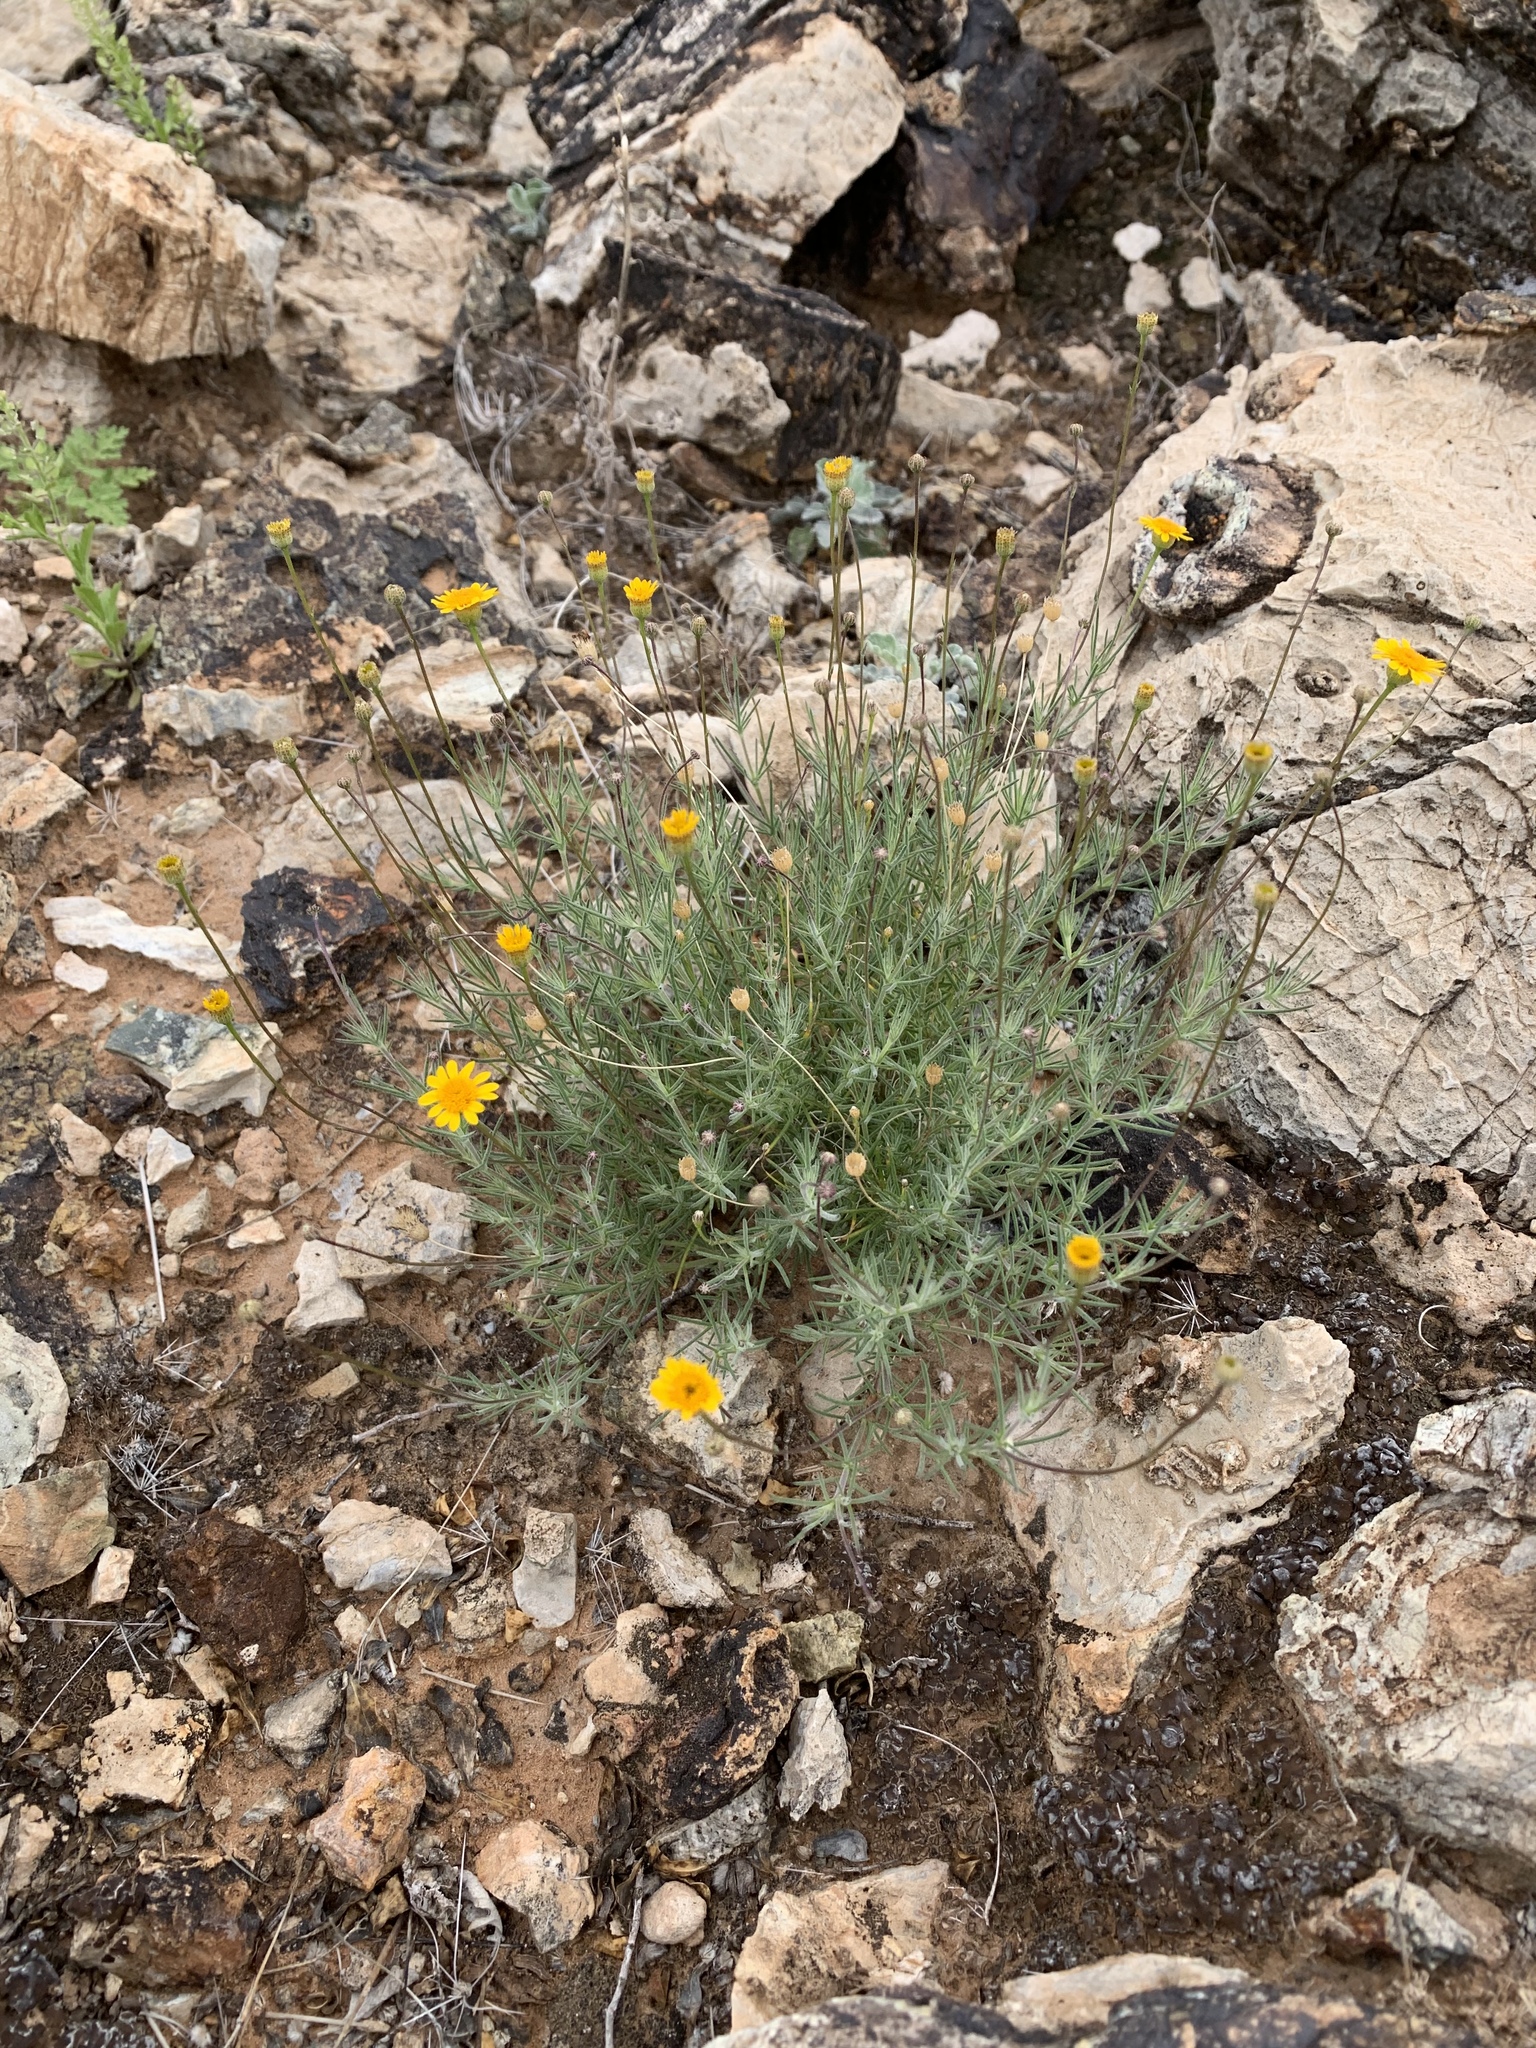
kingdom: Plantae
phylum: Tracheophyta
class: Magnoliopsida
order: Asterales
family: Asteraceae
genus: Thymophylla
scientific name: Thymophylla pentachaeta
